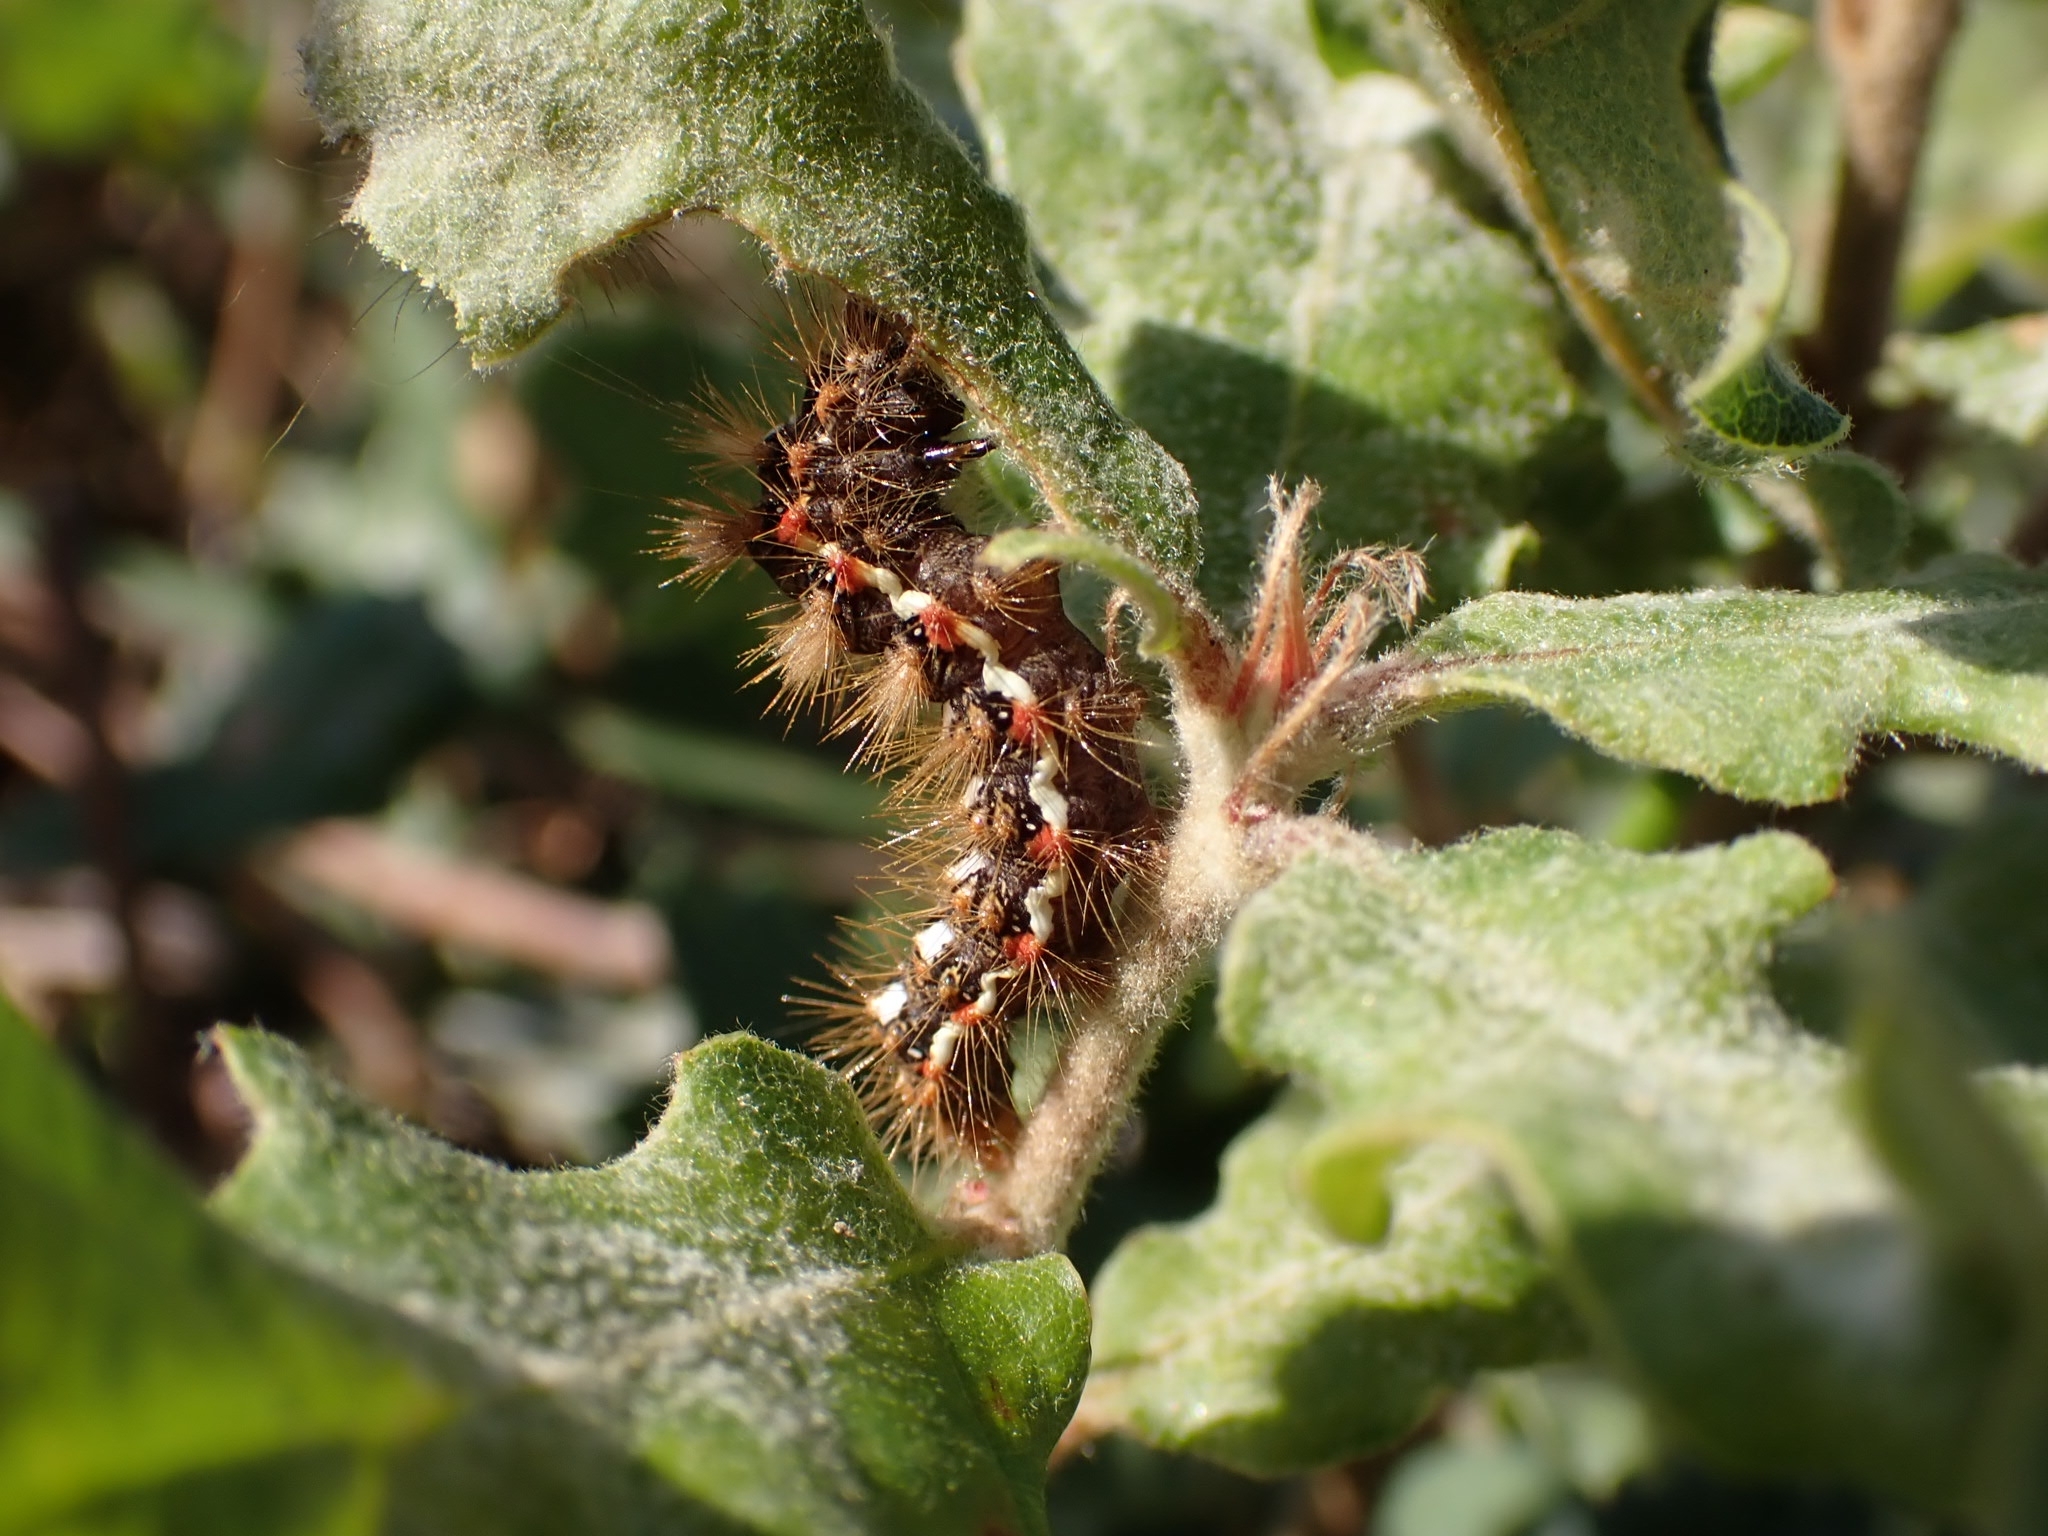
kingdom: Animalia
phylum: Arthropoda
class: Insecta
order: Lepidoptera
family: Noctuidae
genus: Acronicta
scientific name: Acronicta rumicis
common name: Knot grass
